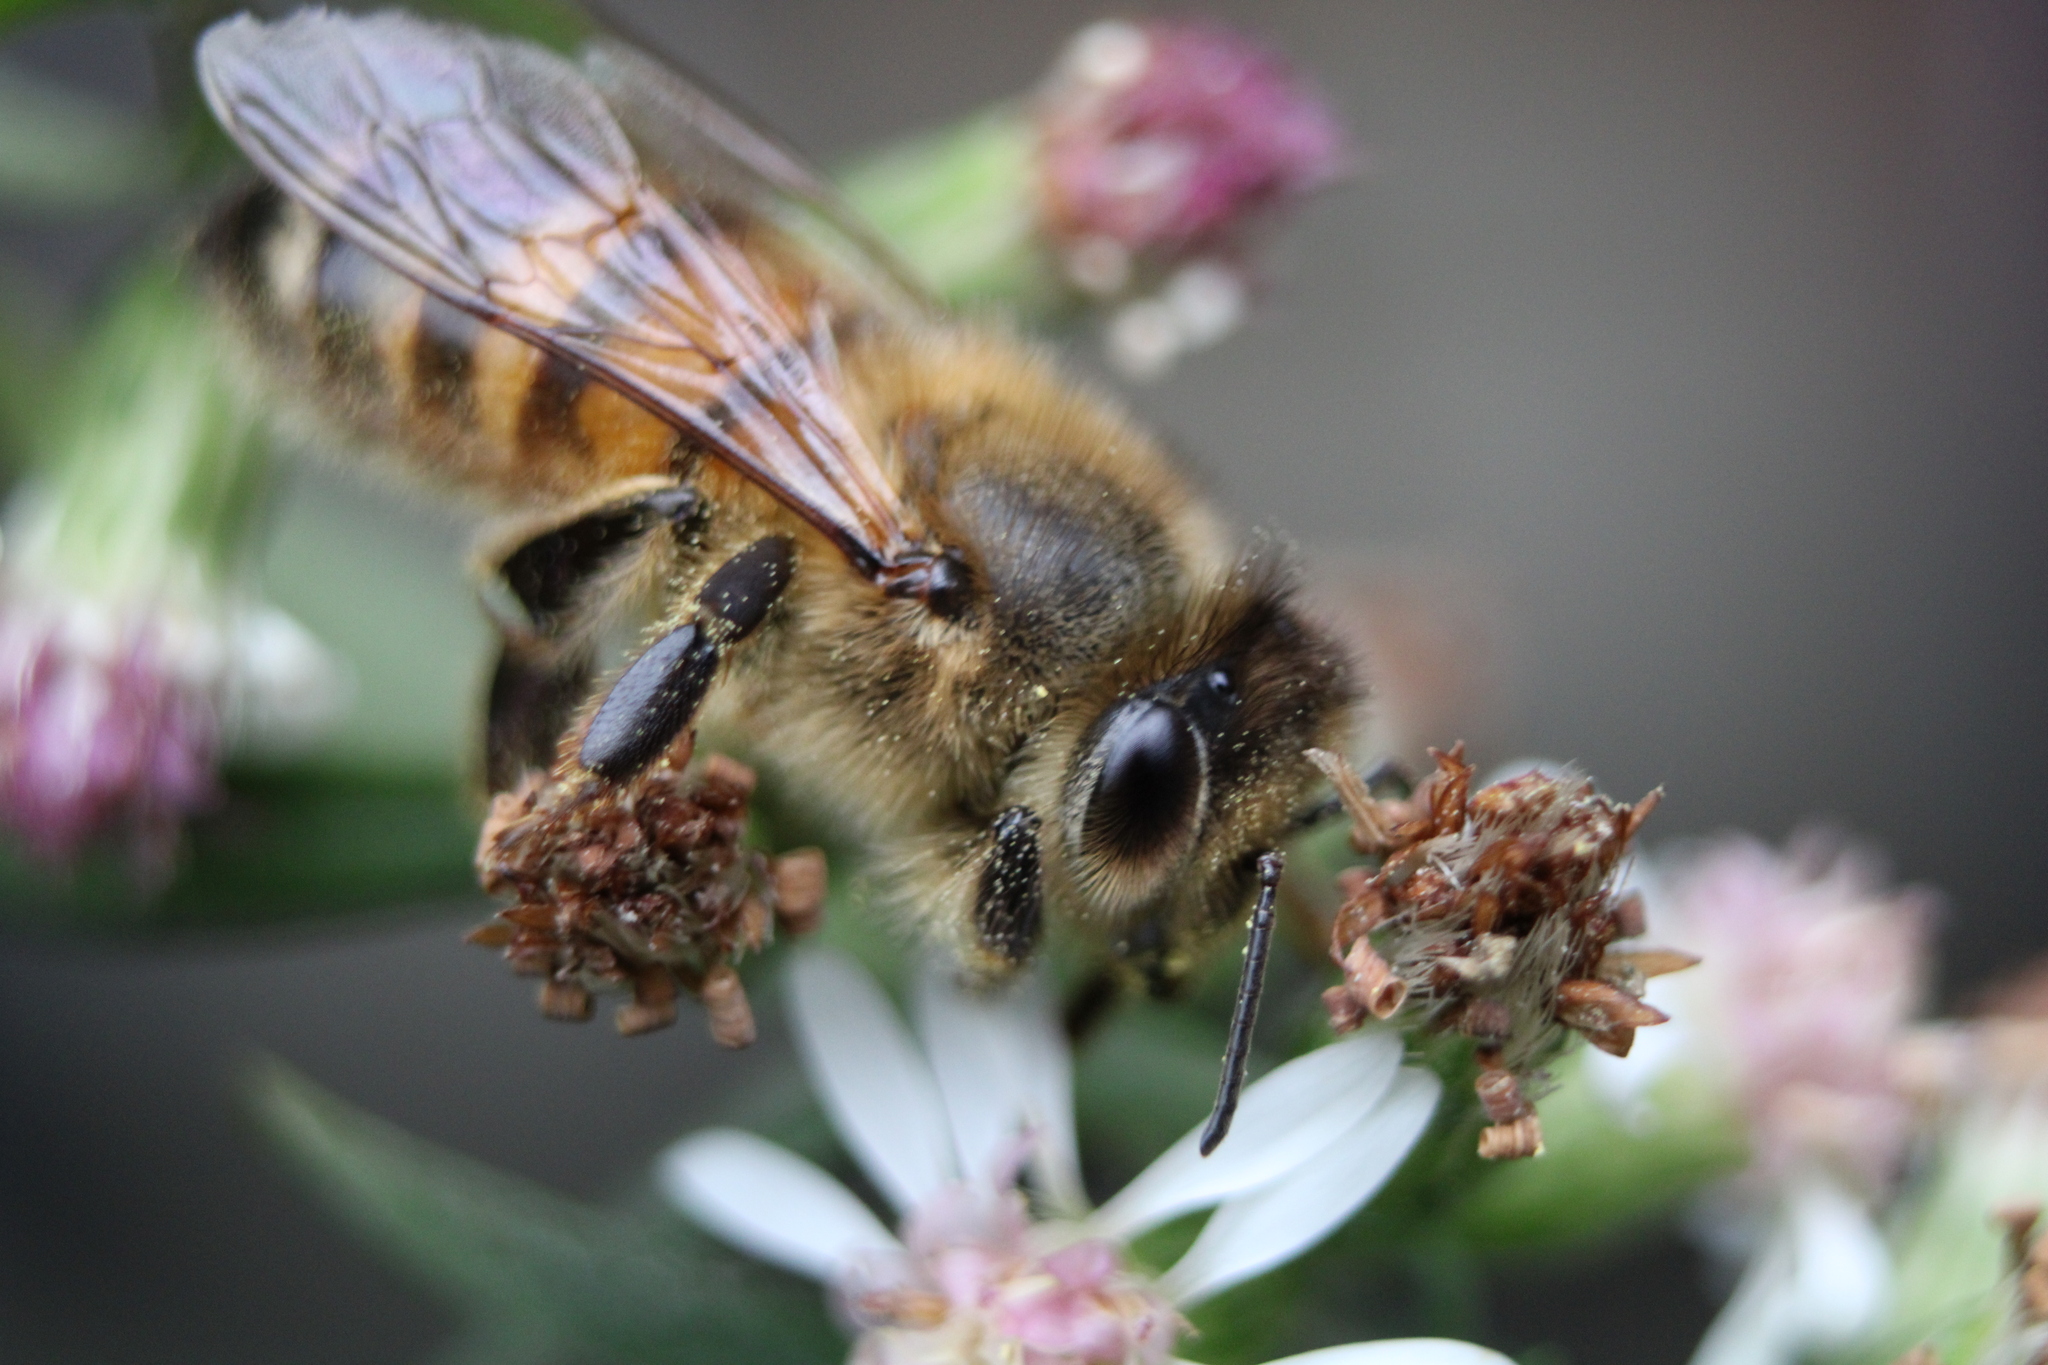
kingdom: Animalia
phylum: Arthropoda
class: Insecta
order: Hymenoptera
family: Apidae
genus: Apis
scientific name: Apis mellifera
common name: Honey bee
